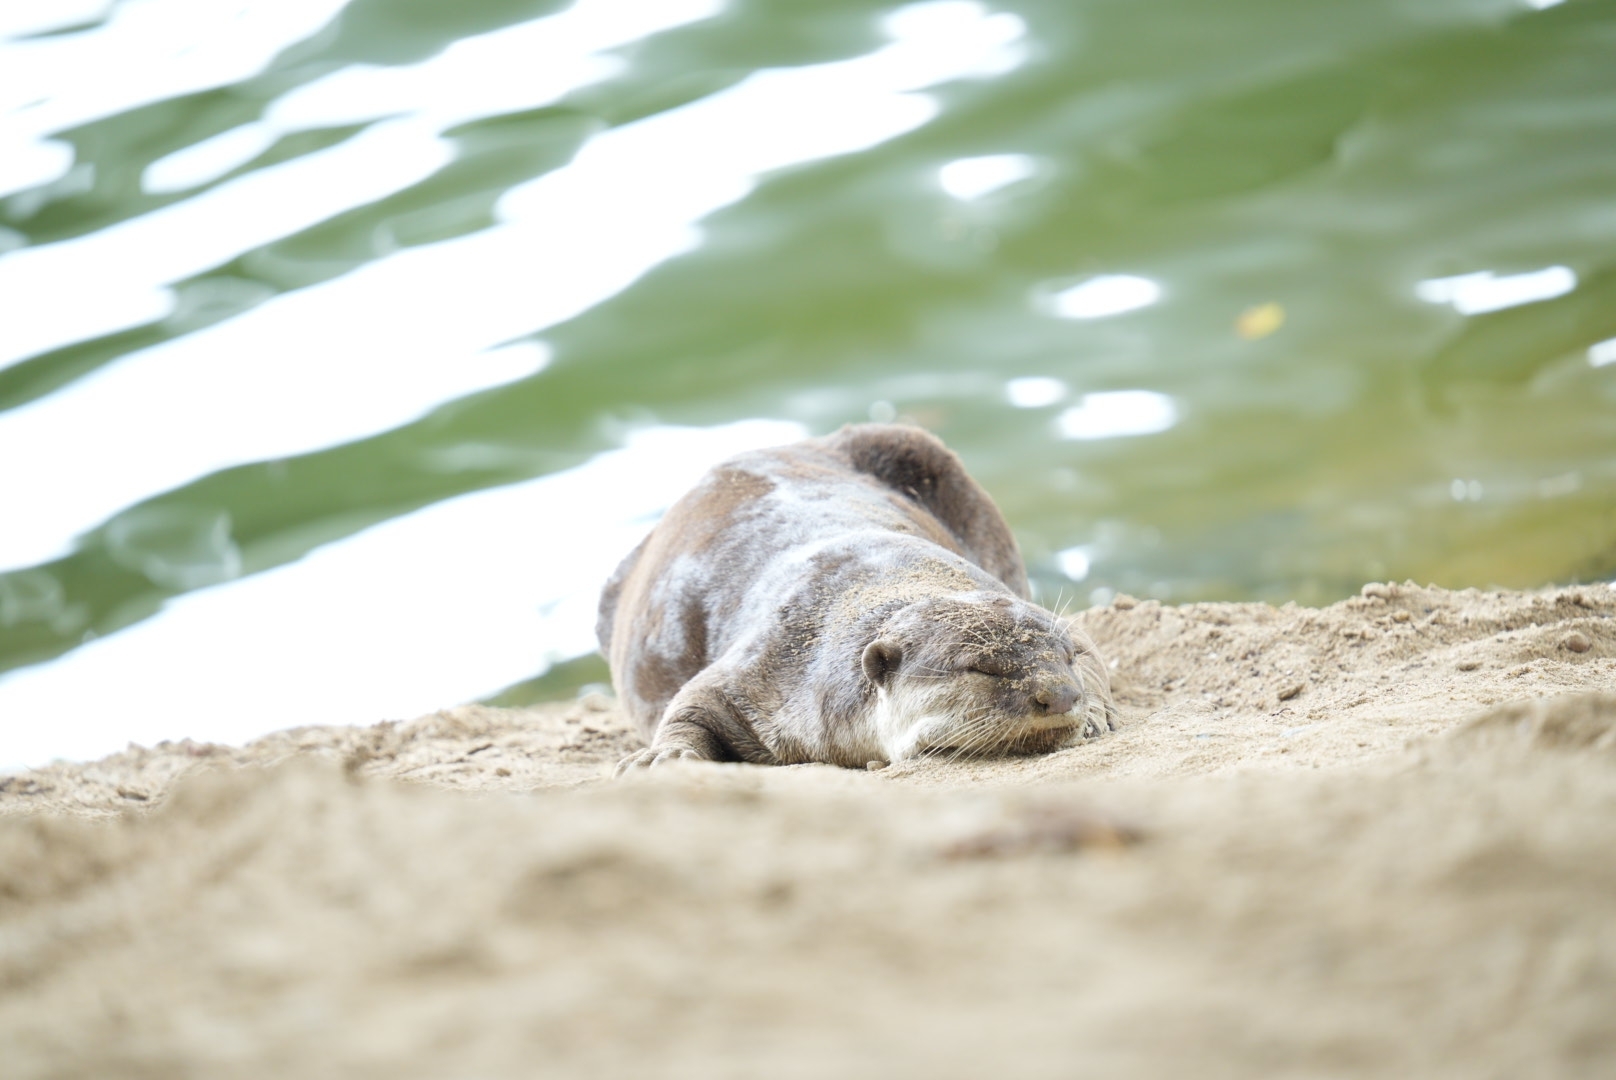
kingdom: Animalia
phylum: Chordata
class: Mammalia
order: Carnivora
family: Mustelidae
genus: Lutrogale
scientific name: Lutrogale perspicillata
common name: Smooth-coated otter
